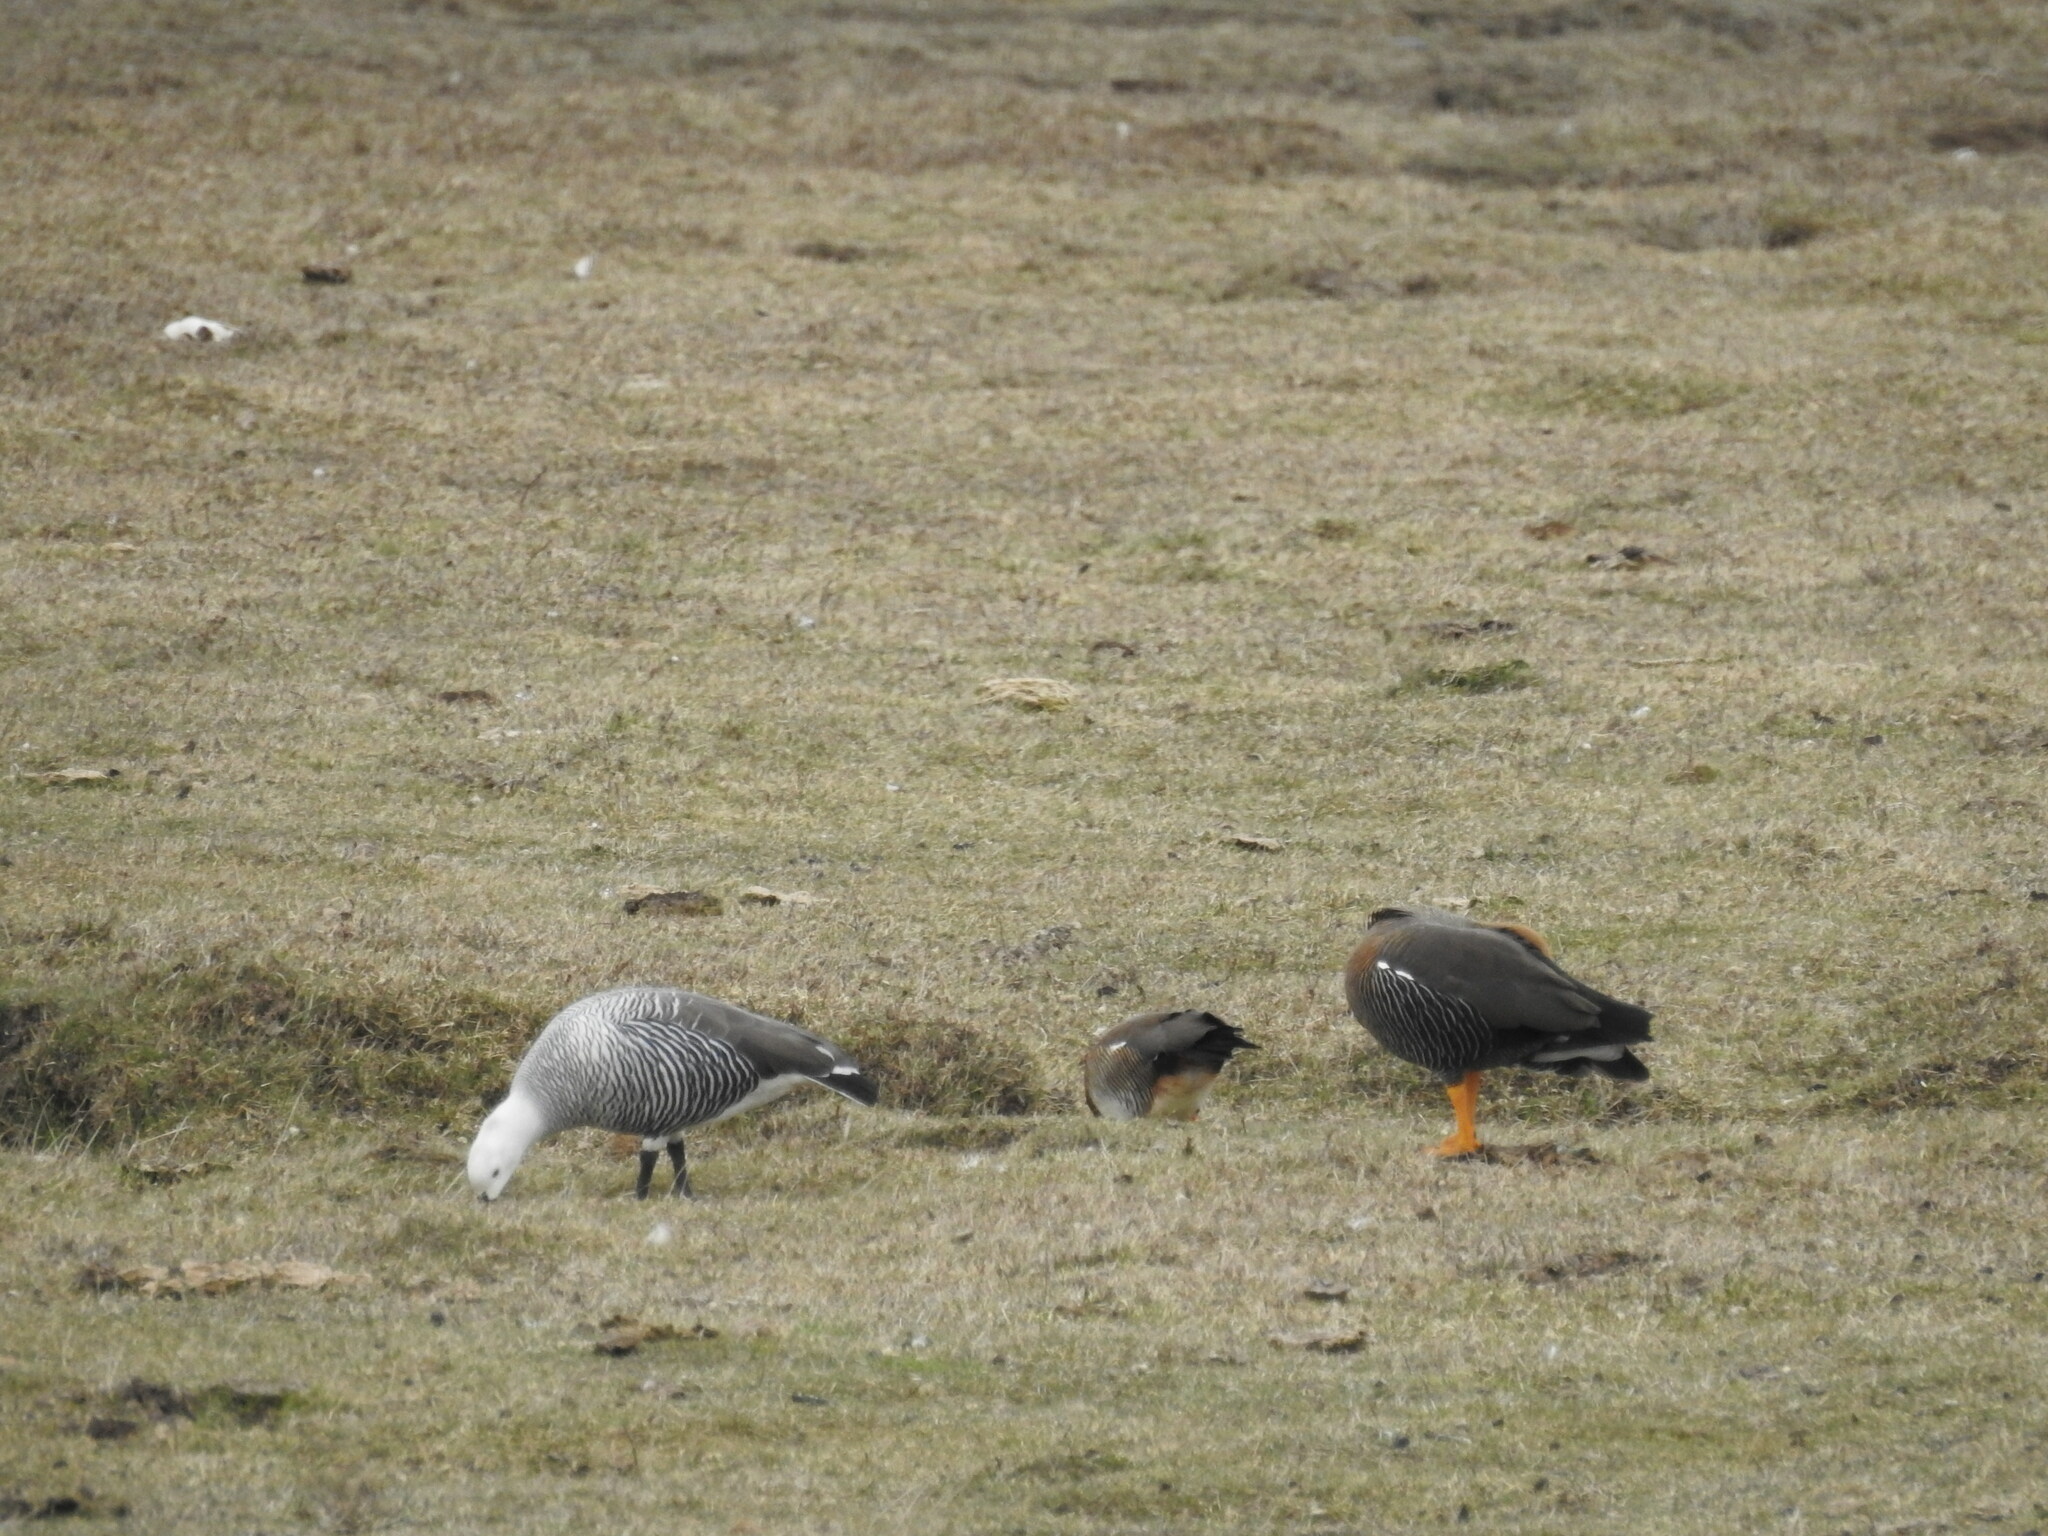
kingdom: Animalia
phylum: Chordata
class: Aves
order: Anseriformes
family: Anatidae
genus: Chloephaga
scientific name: Chloephaga picta
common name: Upland goose
